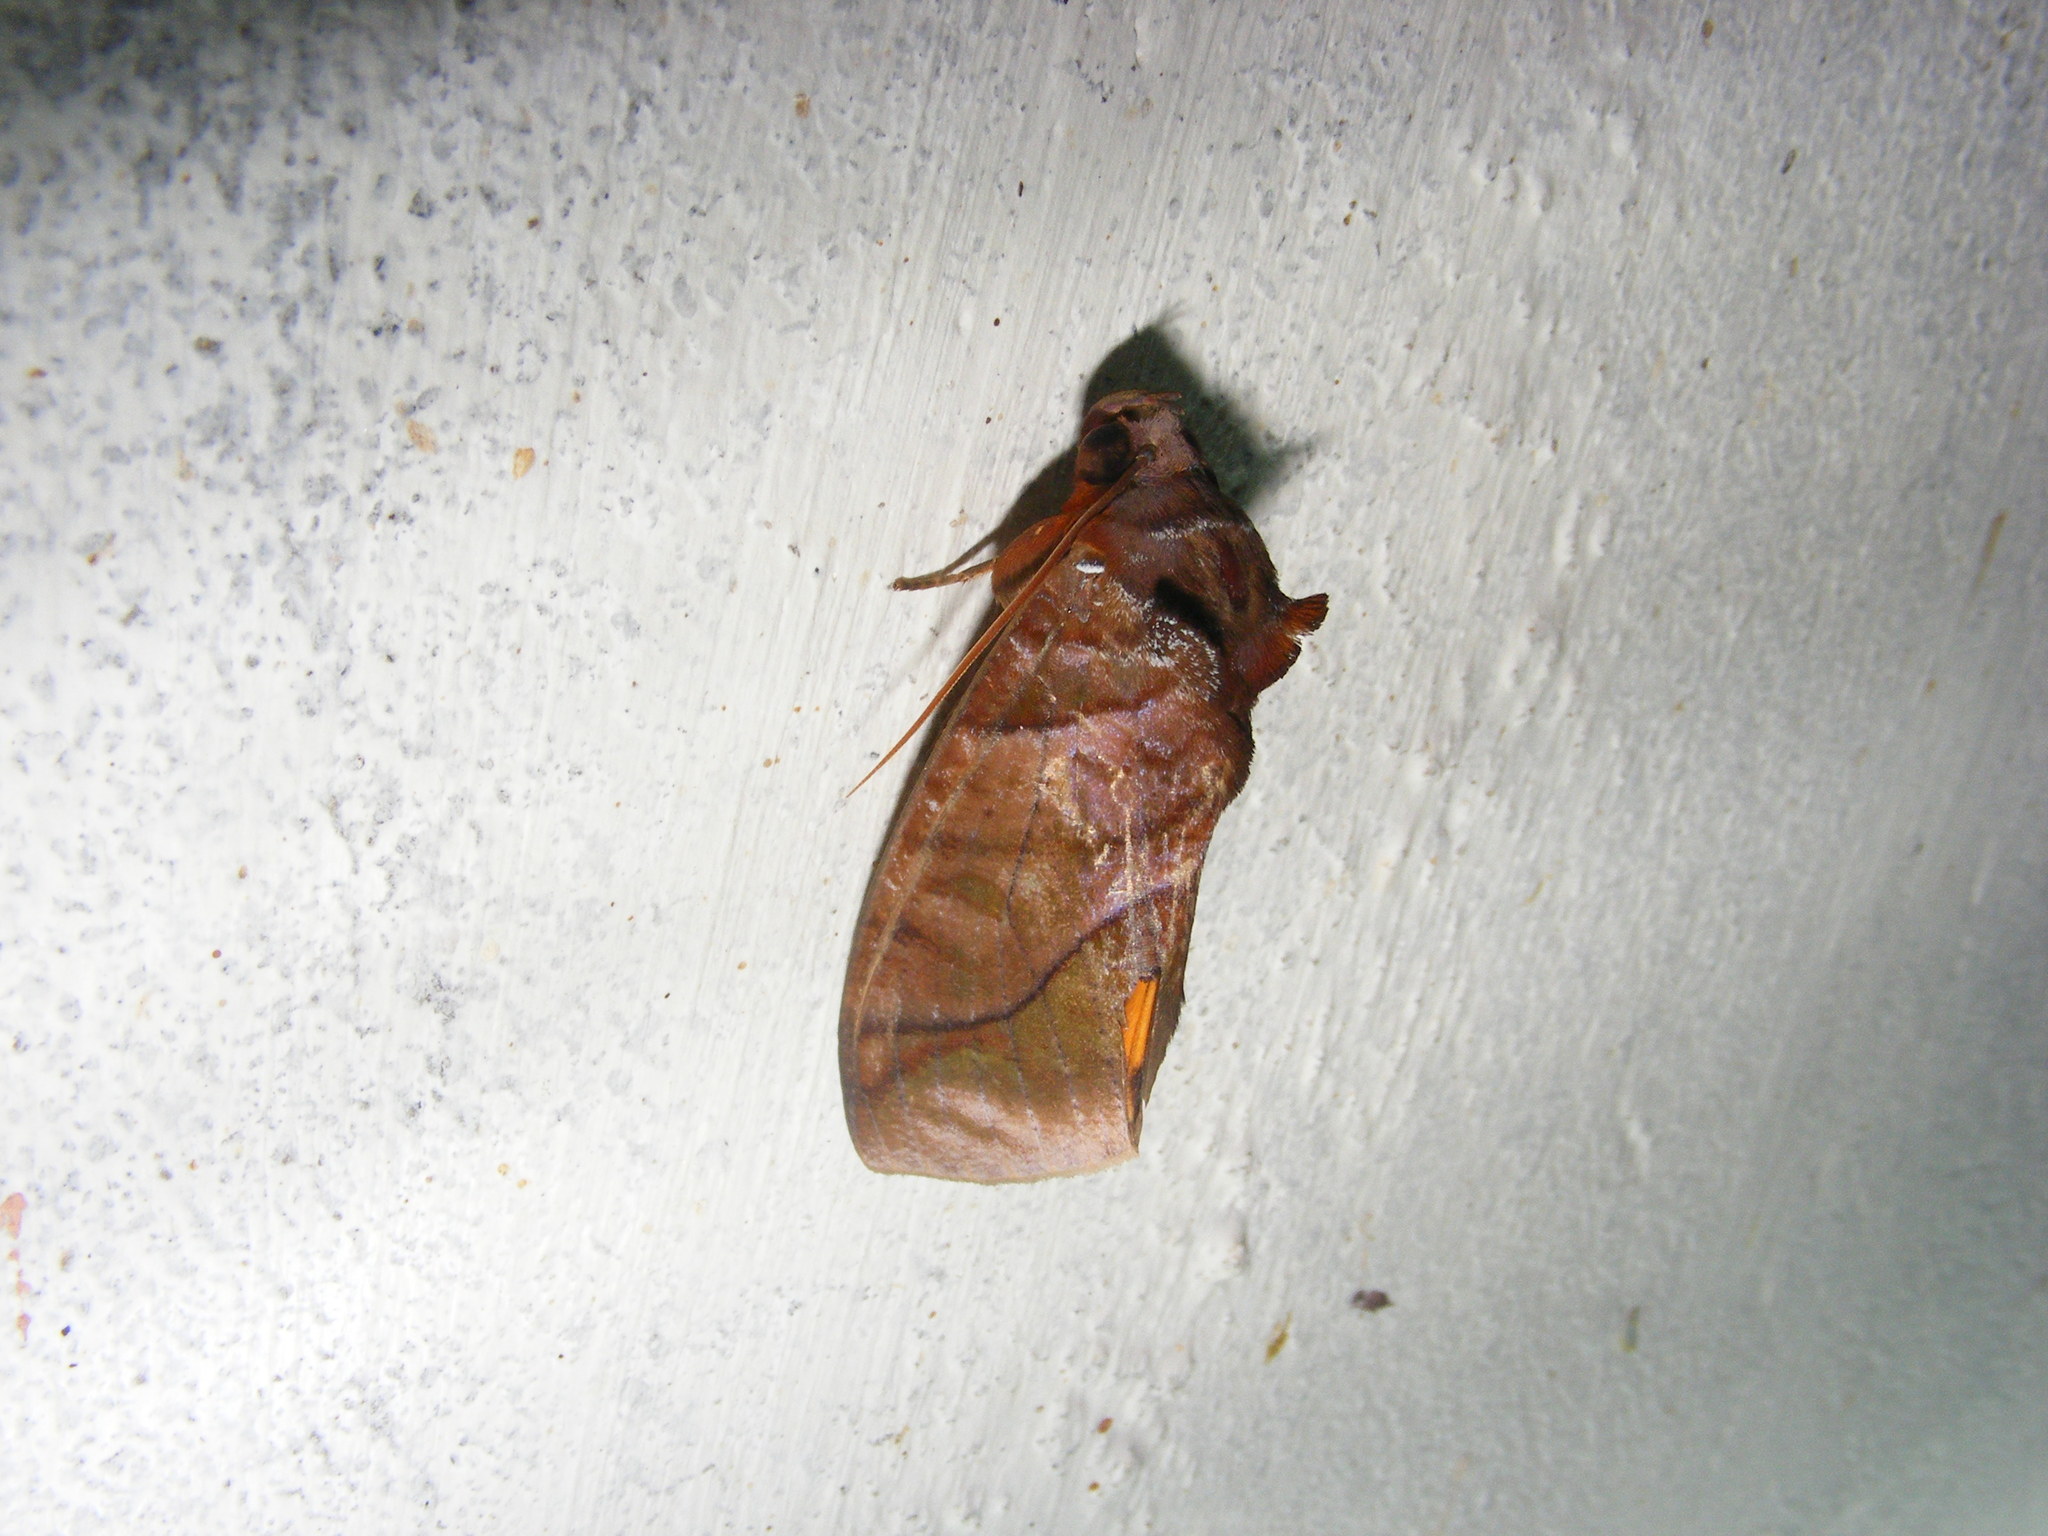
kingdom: Animalia
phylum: Arthropoda
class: Insecta
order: Lepidoptera
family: Erebidae
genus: Eudocima
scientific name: Eudocima homaena
